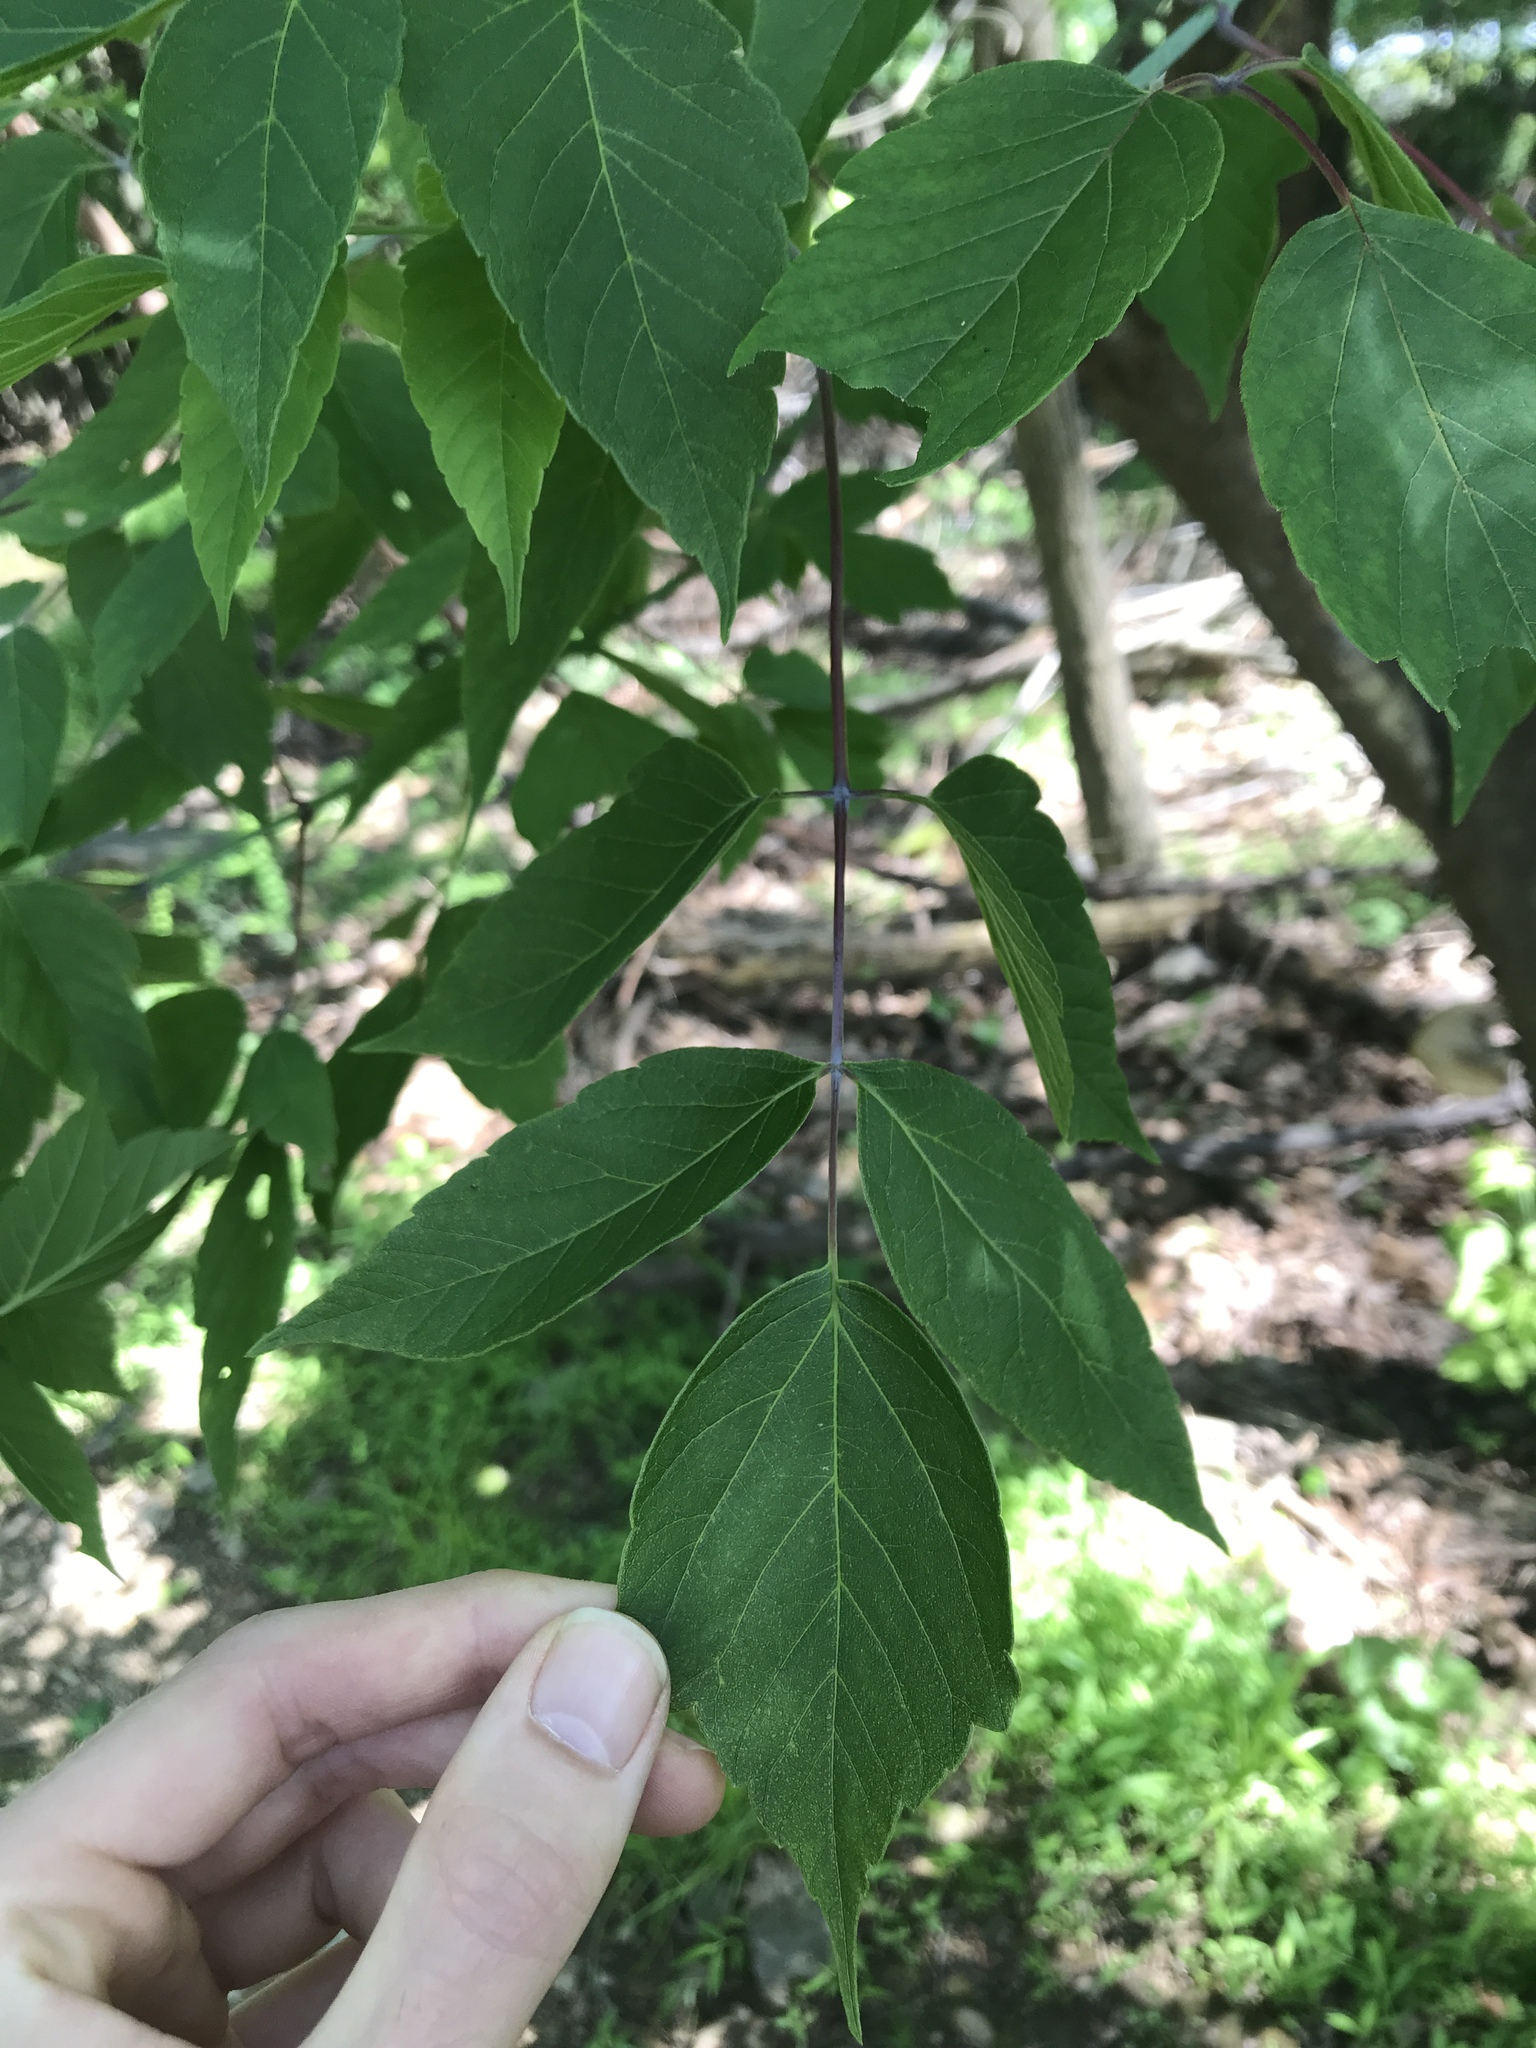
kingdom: Plantae
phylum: Tracheophyta
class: Magnoliopsida
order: Sapindales
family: Sapindaceae
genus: Acer
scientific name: Acer negundo
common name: Ashleaf maple
